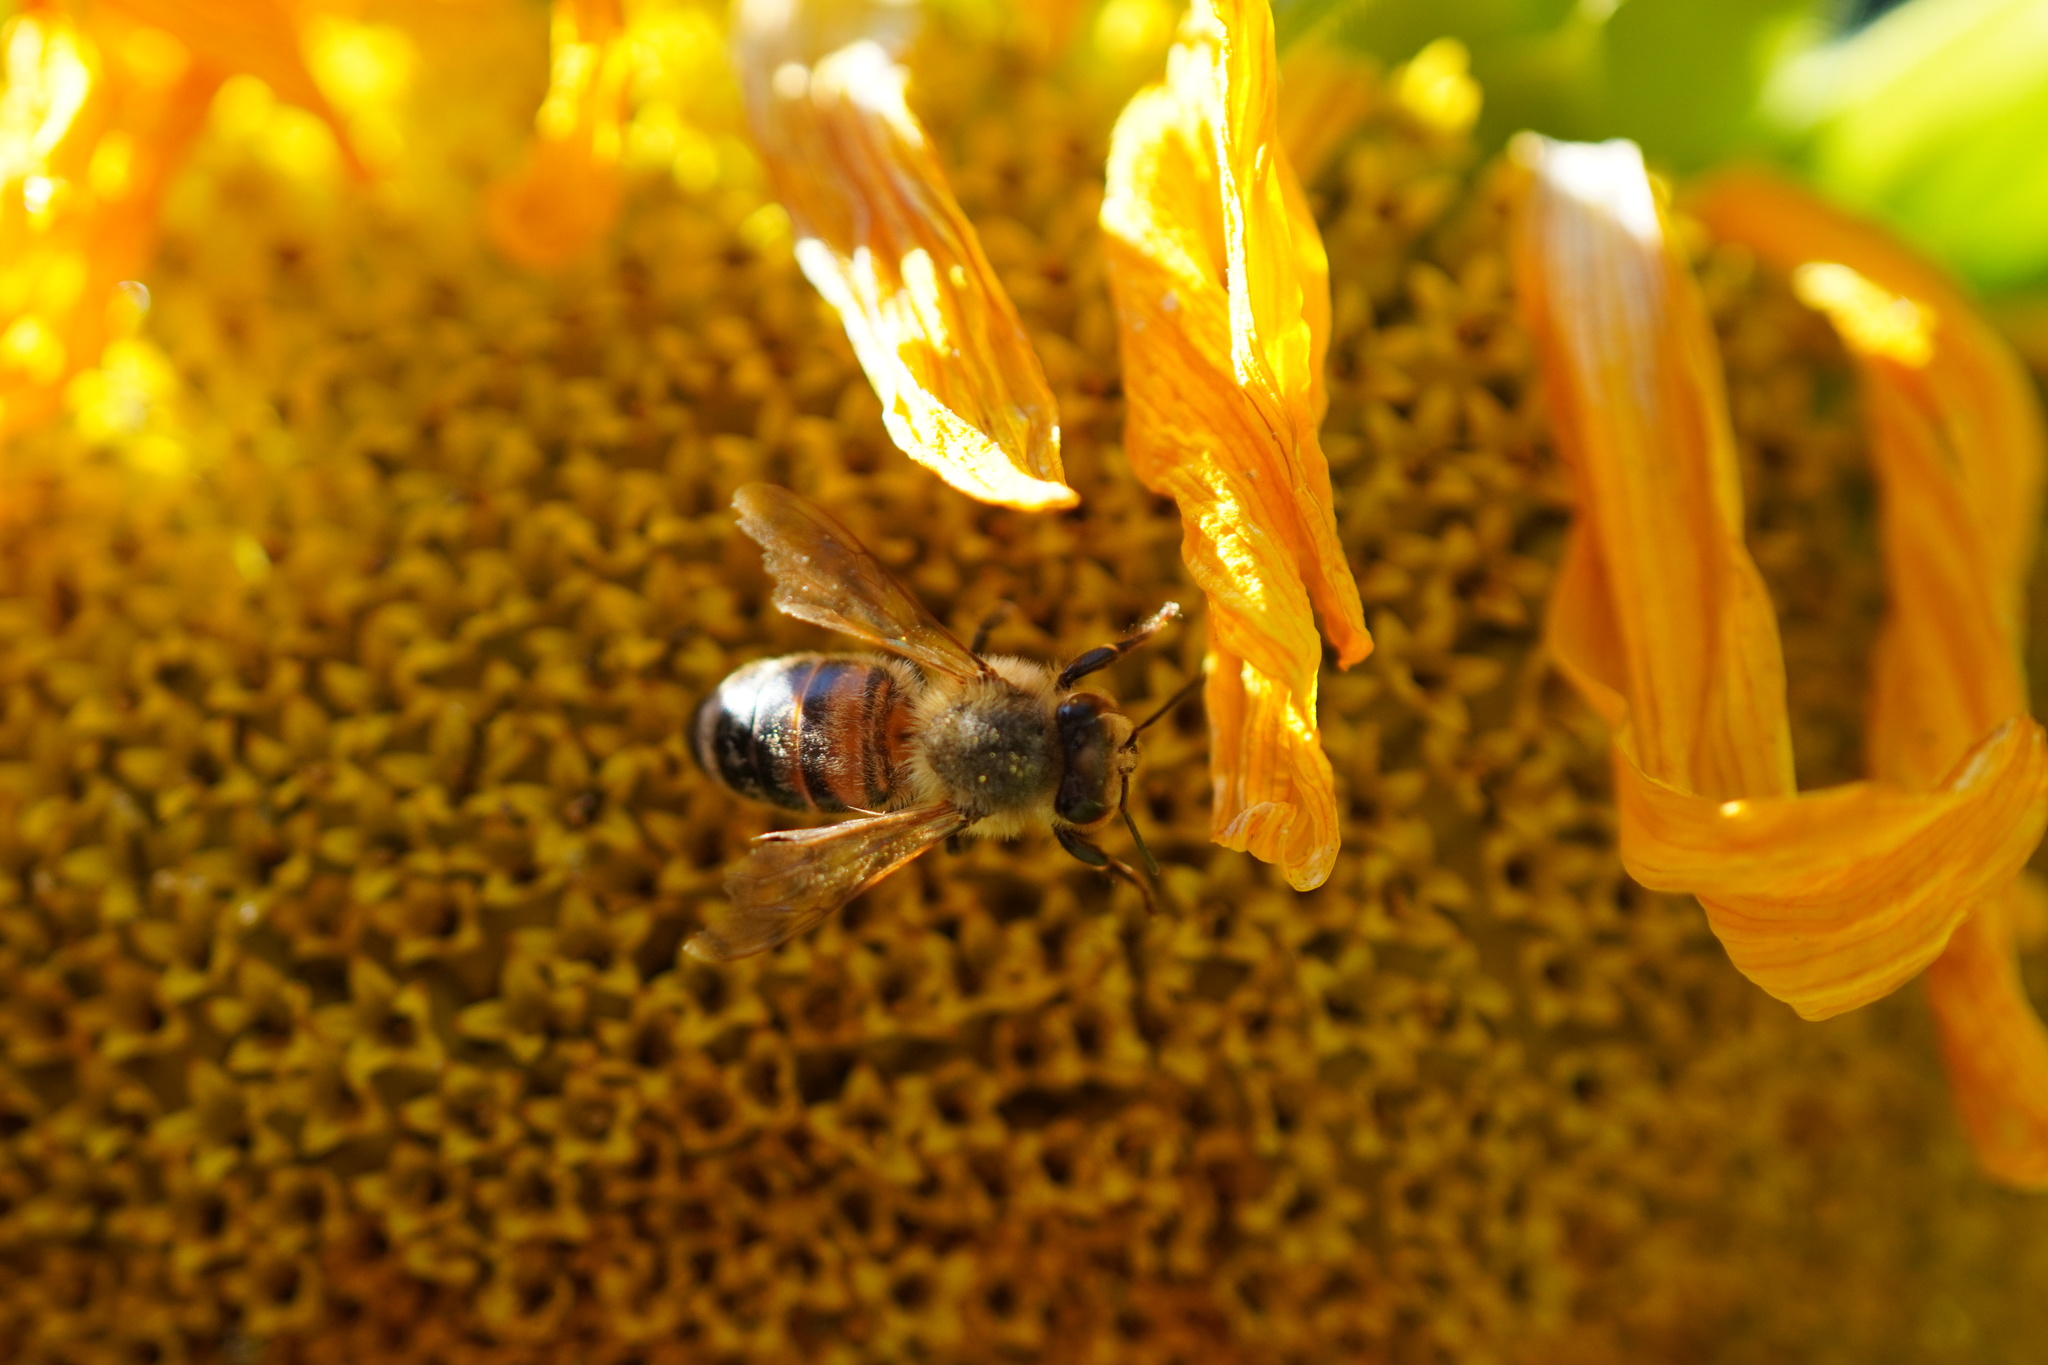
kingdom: Animalia
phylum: Arthropoda
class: Insecta
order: Hymenoptera
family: Apidae
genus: Apis
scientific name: Apis mellifera
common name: Honey bee
